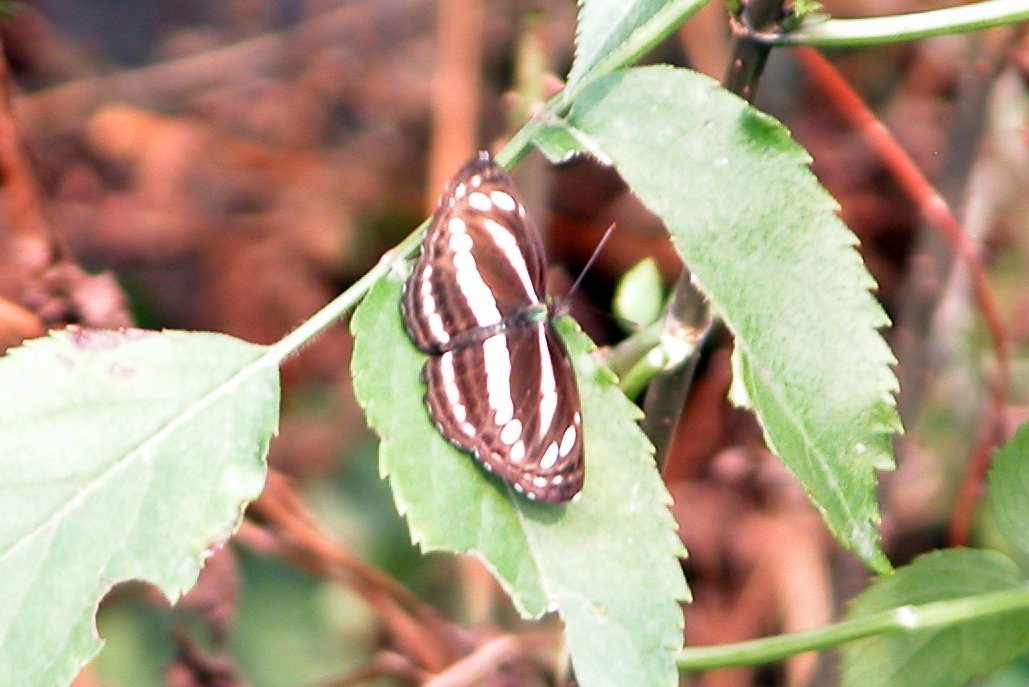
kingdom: Animalia
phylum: Arthropoda
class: Insecta
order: Lepidoptera
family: Nymphalidae
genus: Neptis
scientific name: Neptis clinia
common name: Southern sullied sailer
